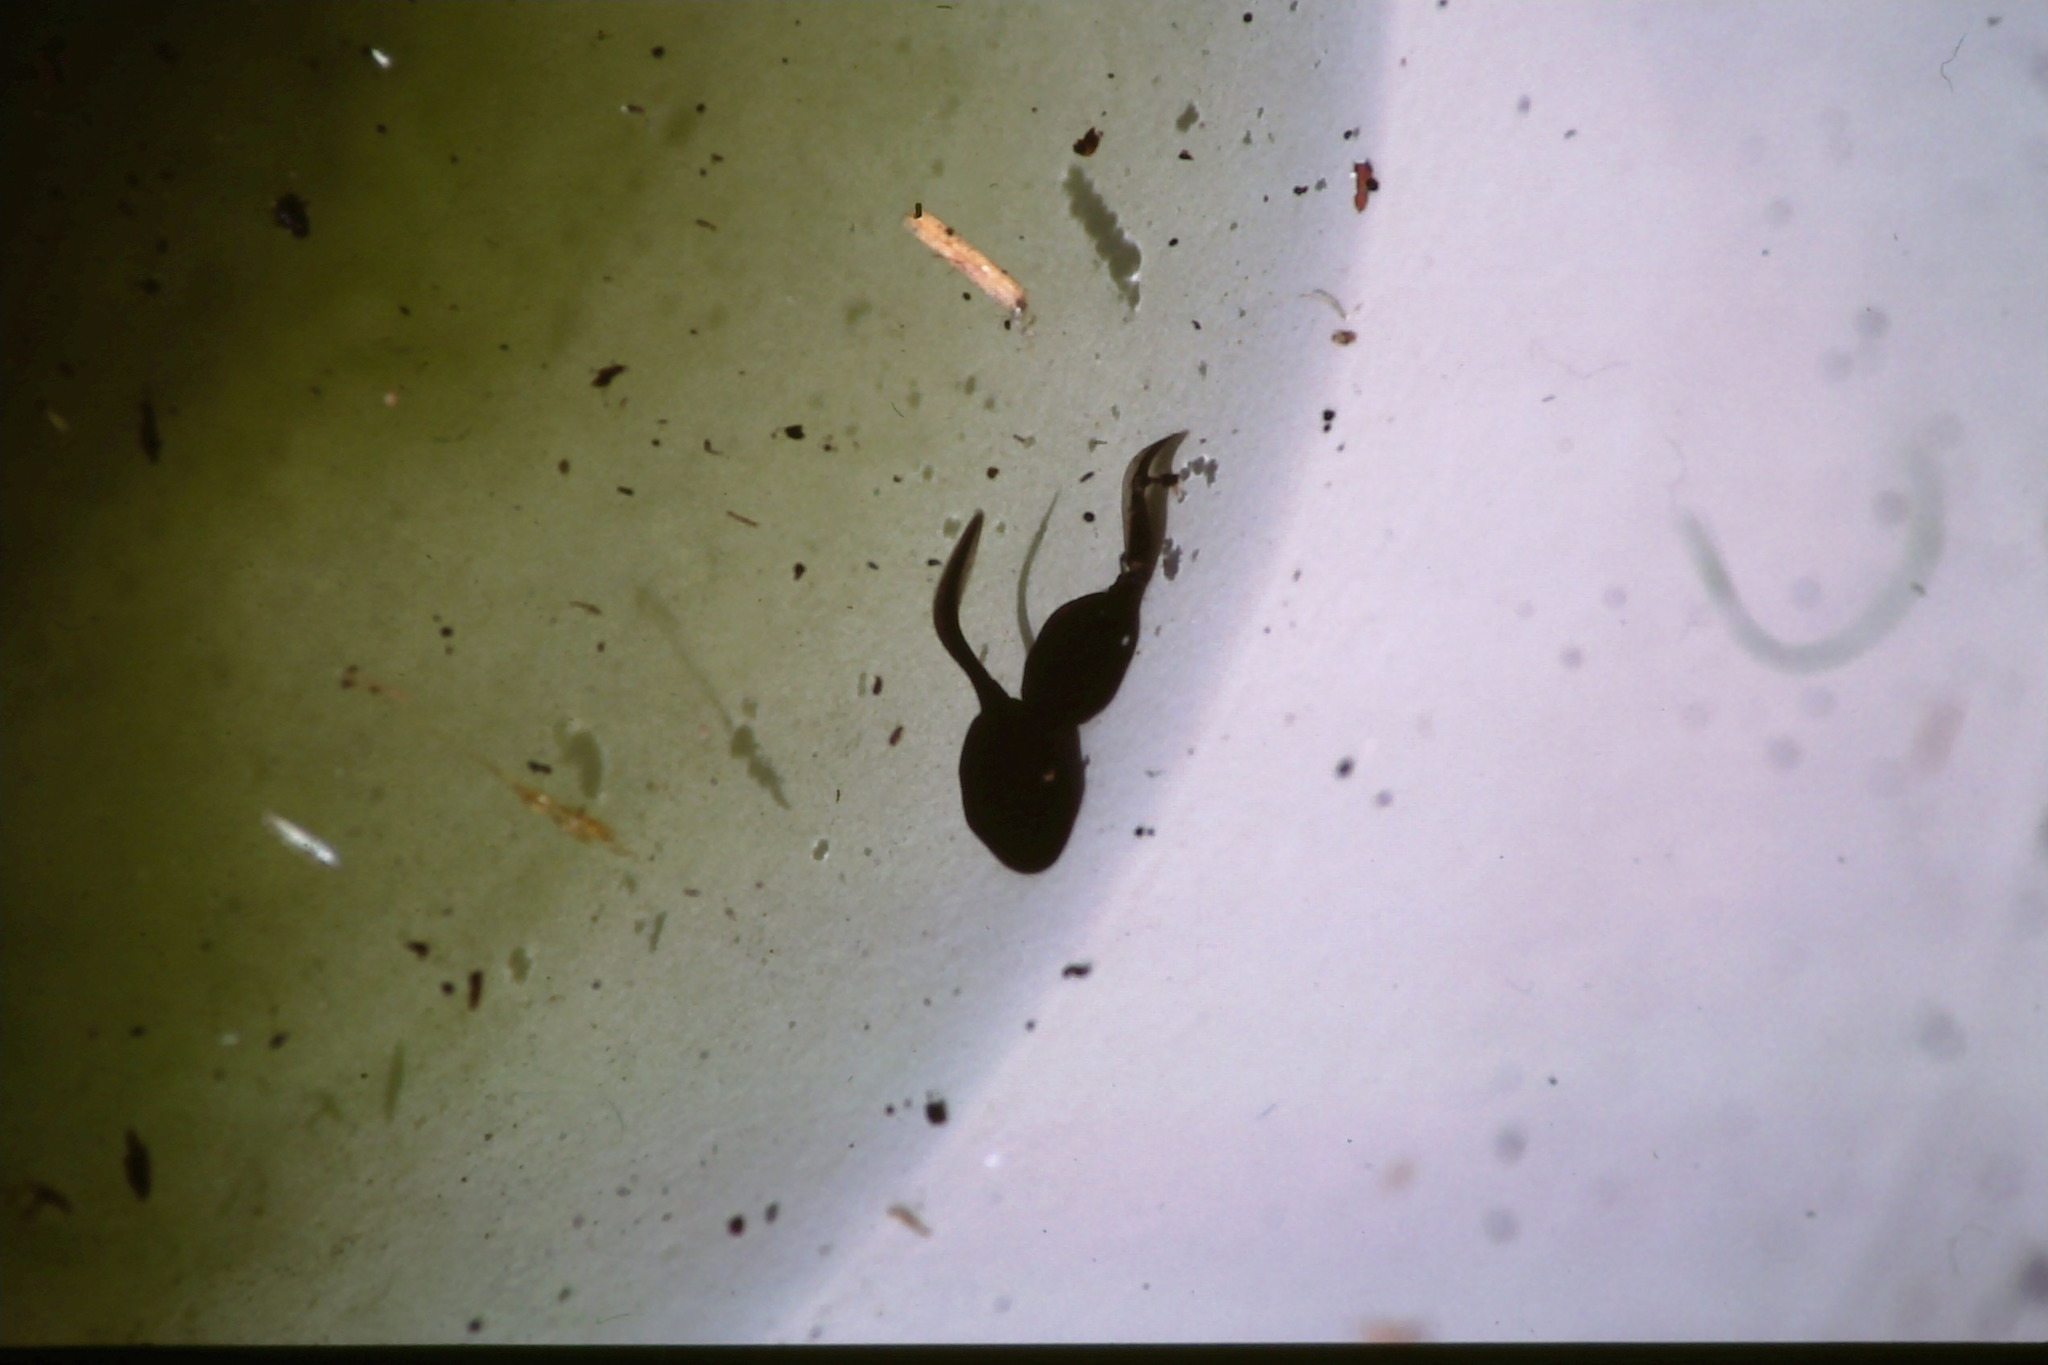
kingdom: Animalia
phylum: Chordata
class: Amphibia
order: Anura
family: Bufonidae
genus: Bufo
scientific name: Bufo spinosus
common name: Western common toad
